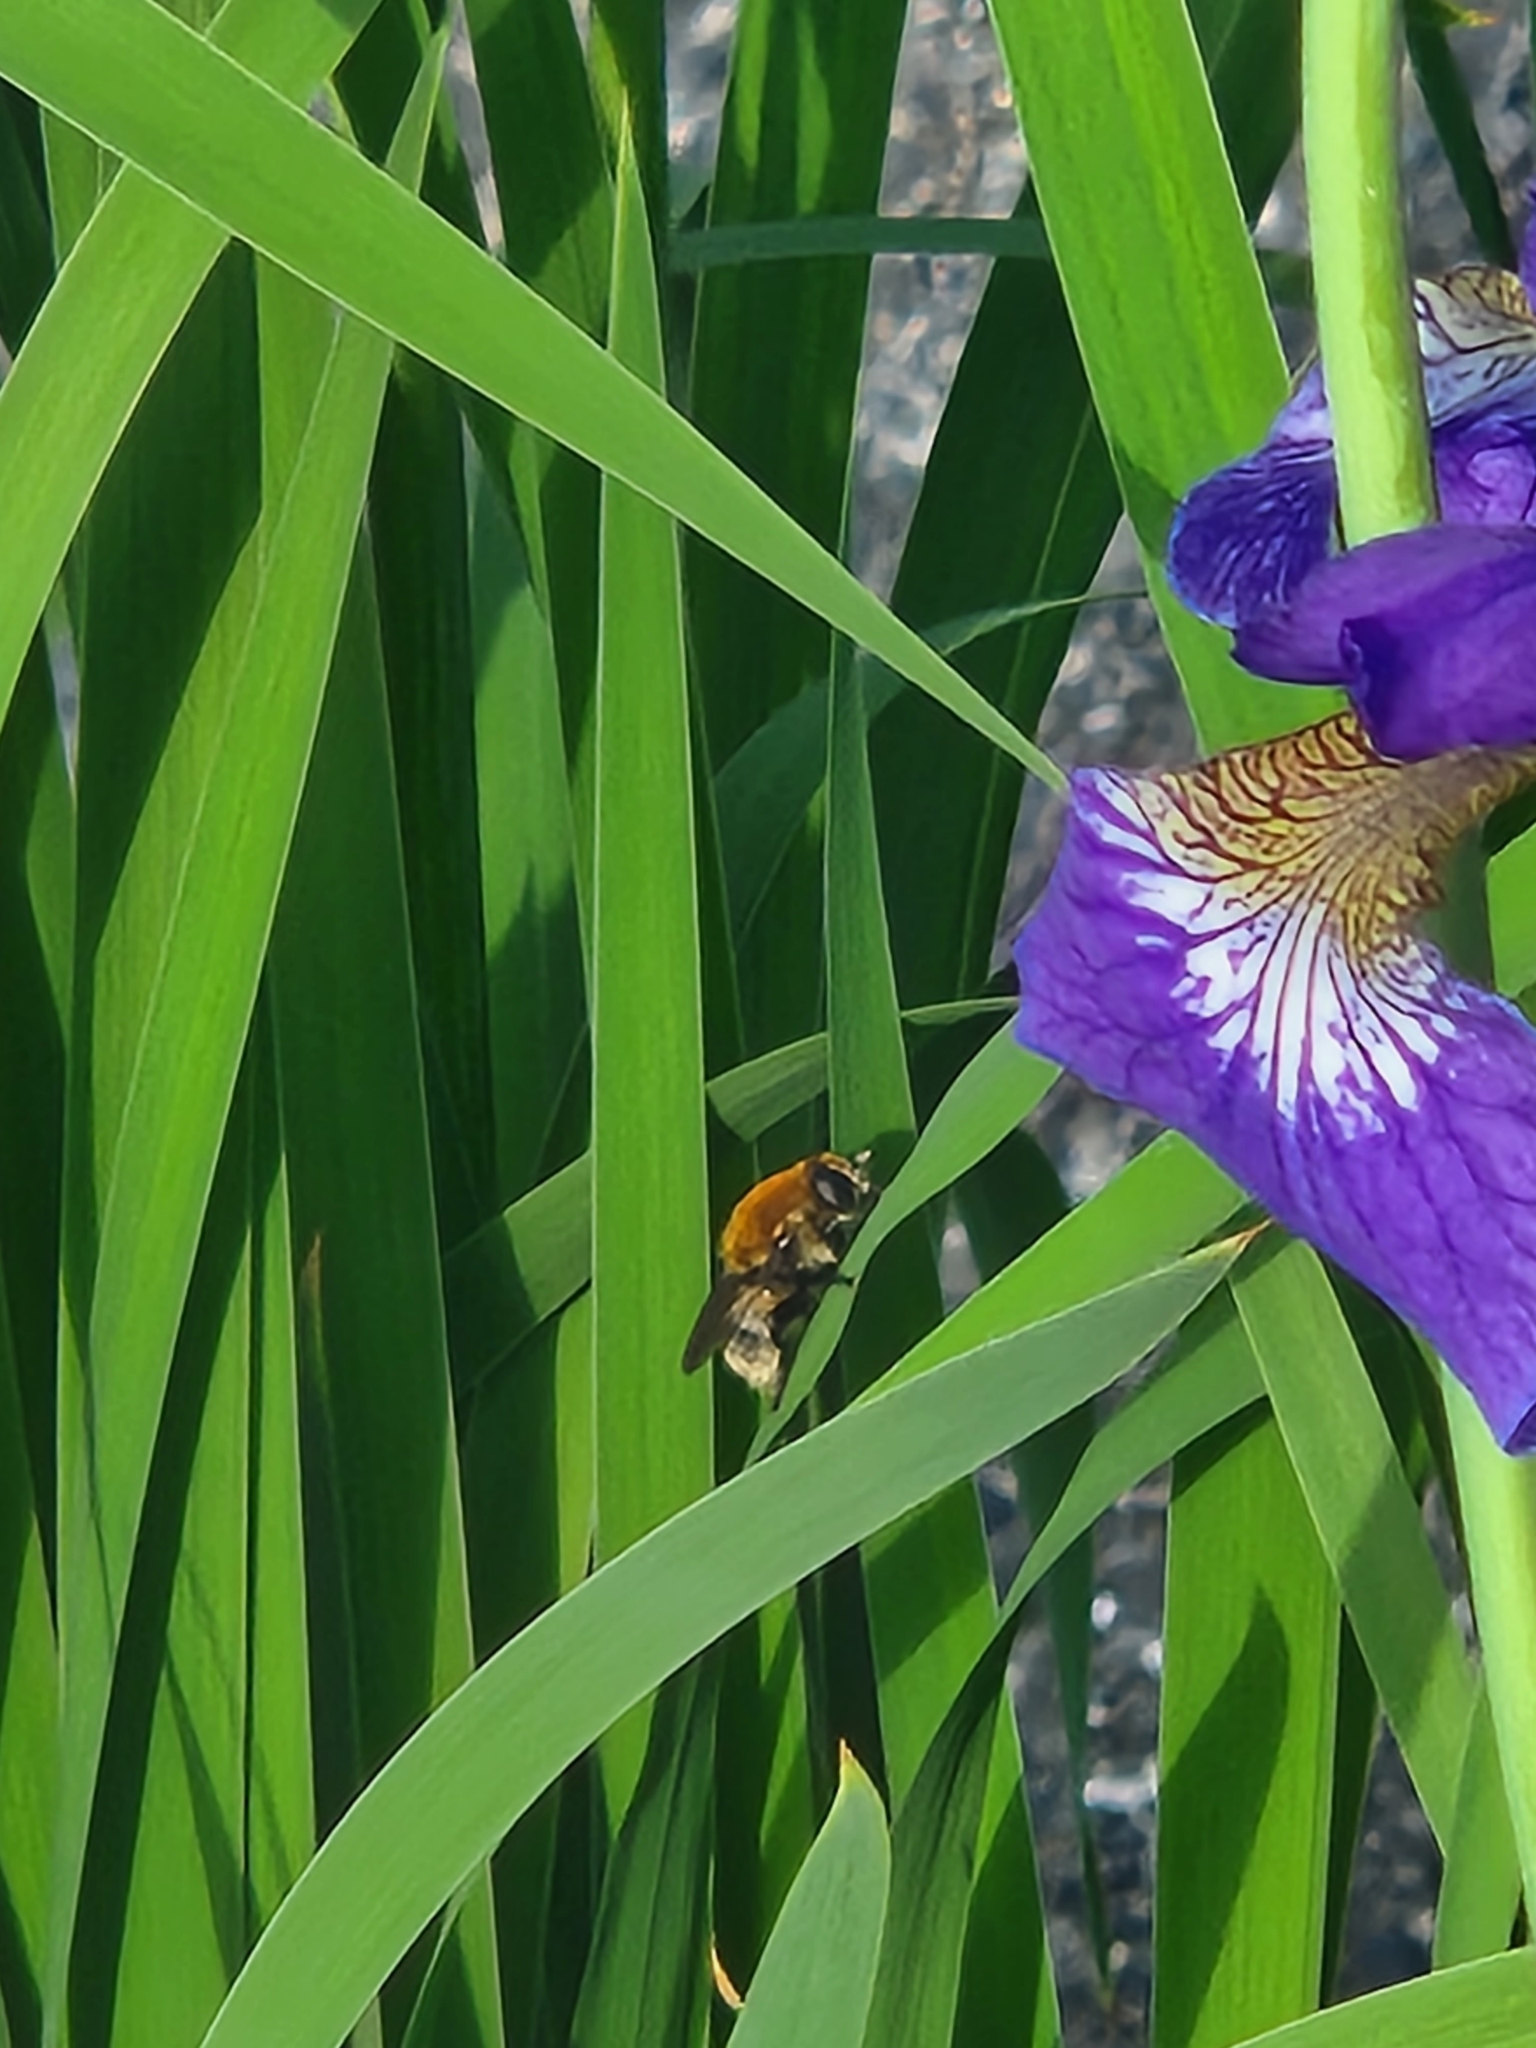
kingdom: Animalia
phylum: Arthropoda
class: Insecta
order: Diptera
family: Syrphidae
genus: Merodon
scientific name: Merodon equestris
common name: Greater bulb-fly
